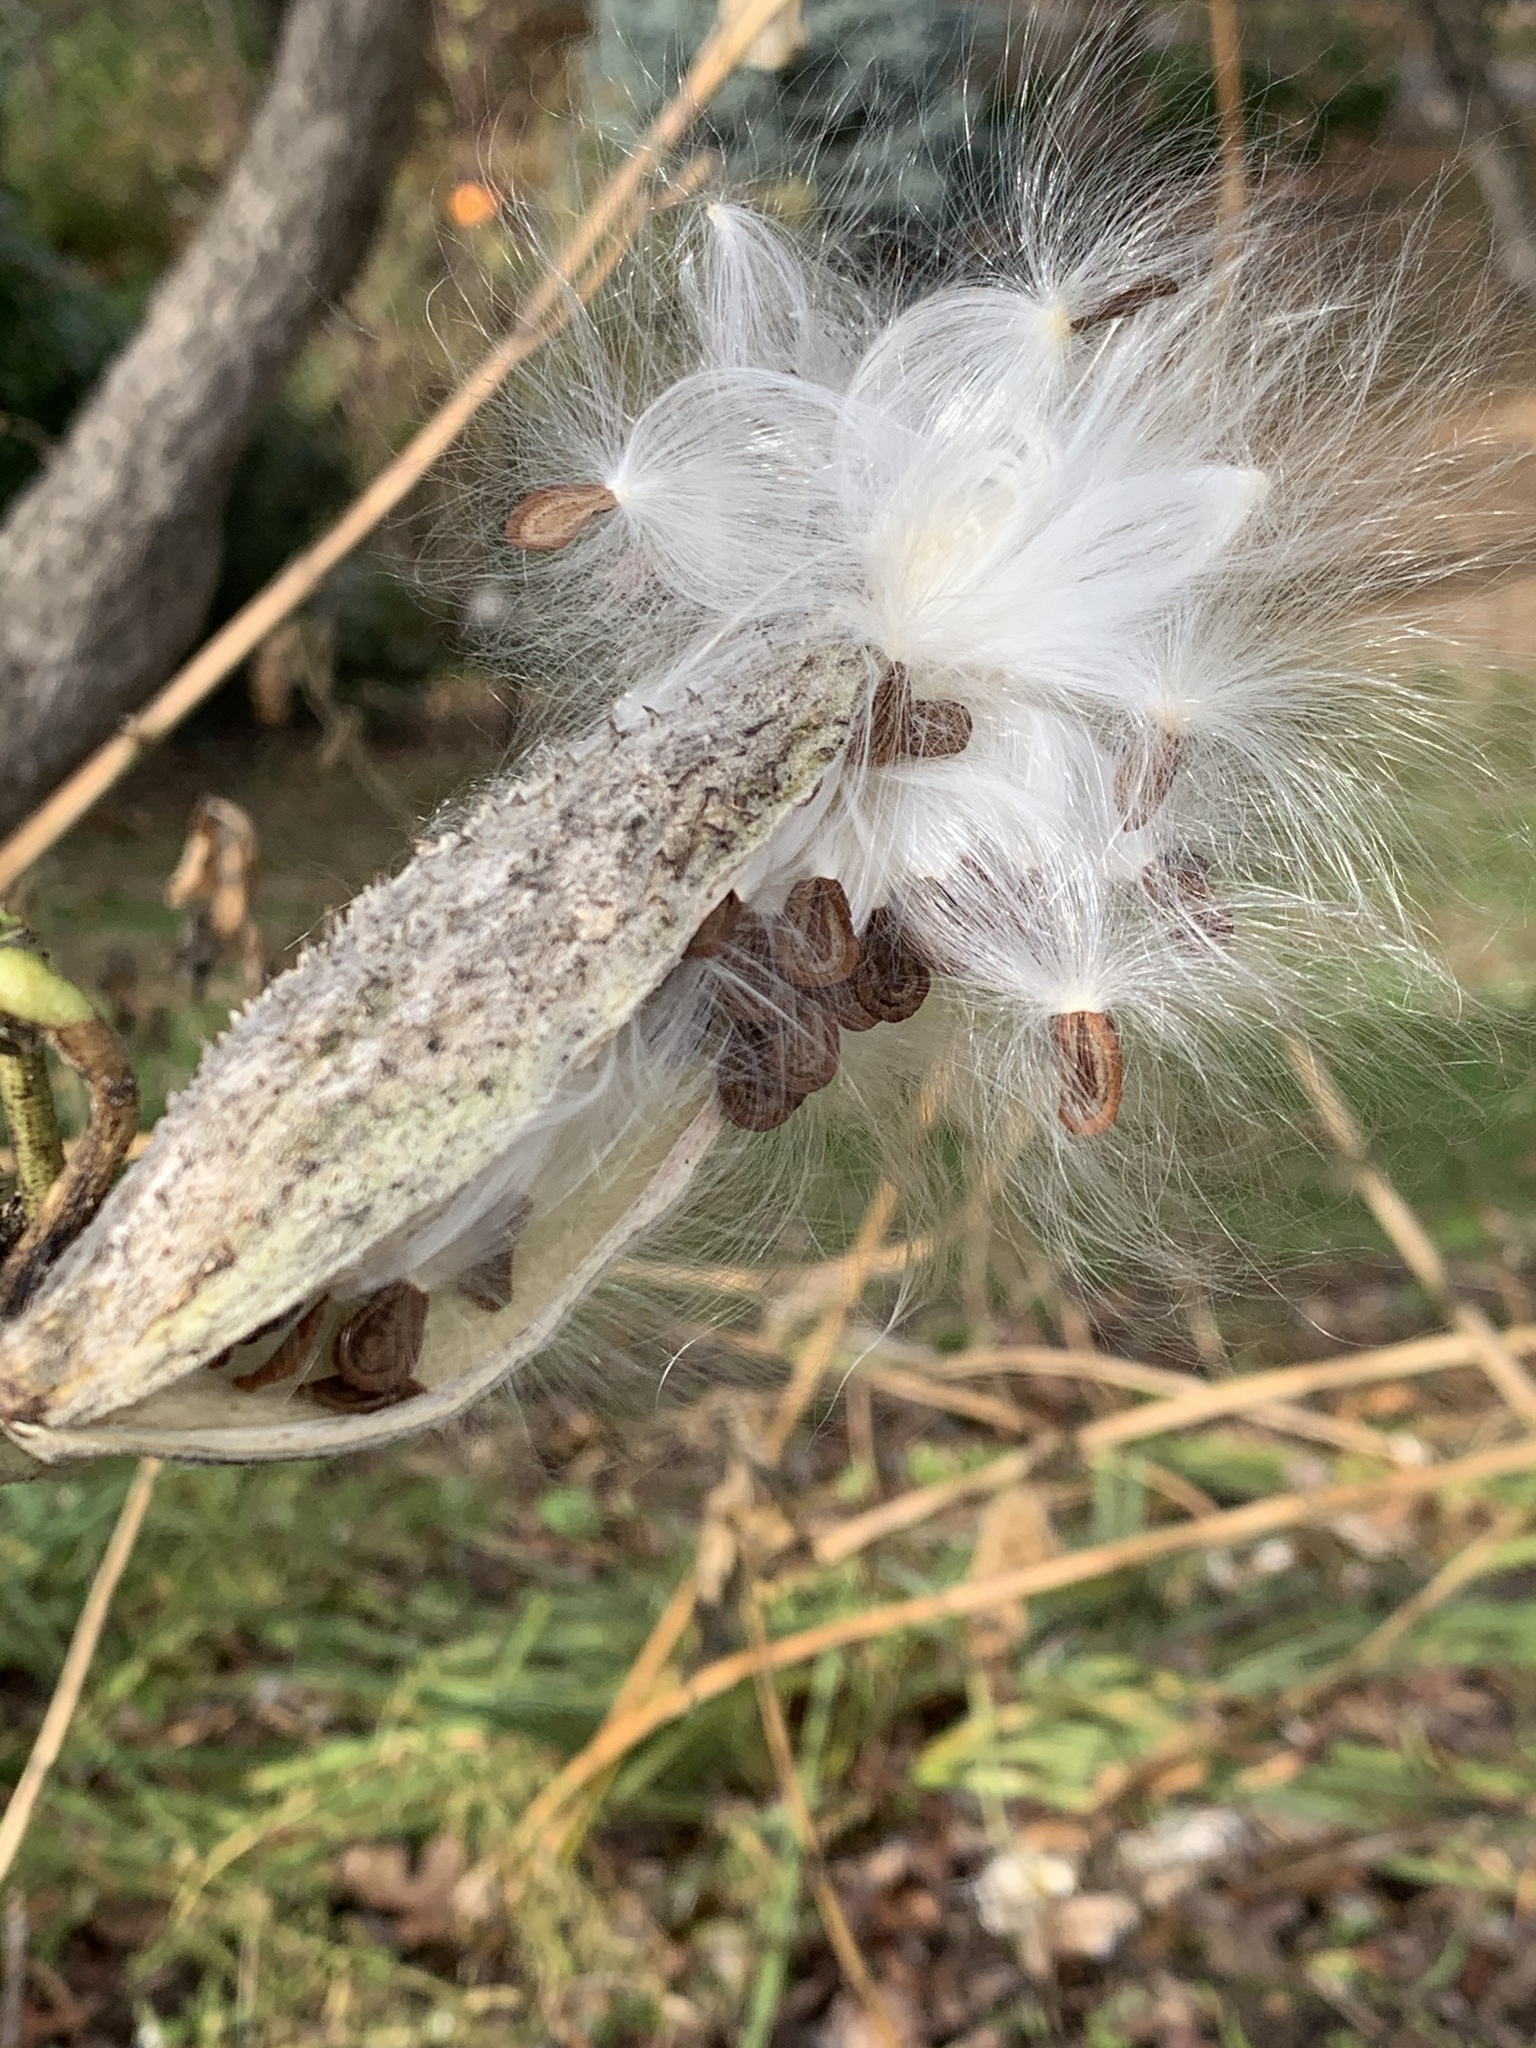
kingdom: Plantae
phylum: Tracheophyta
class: Magnoliopsida
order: Gentianales
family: Apocynaceae
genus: Asclepias
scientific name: Asclepias syriaca
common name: Common milkweed
